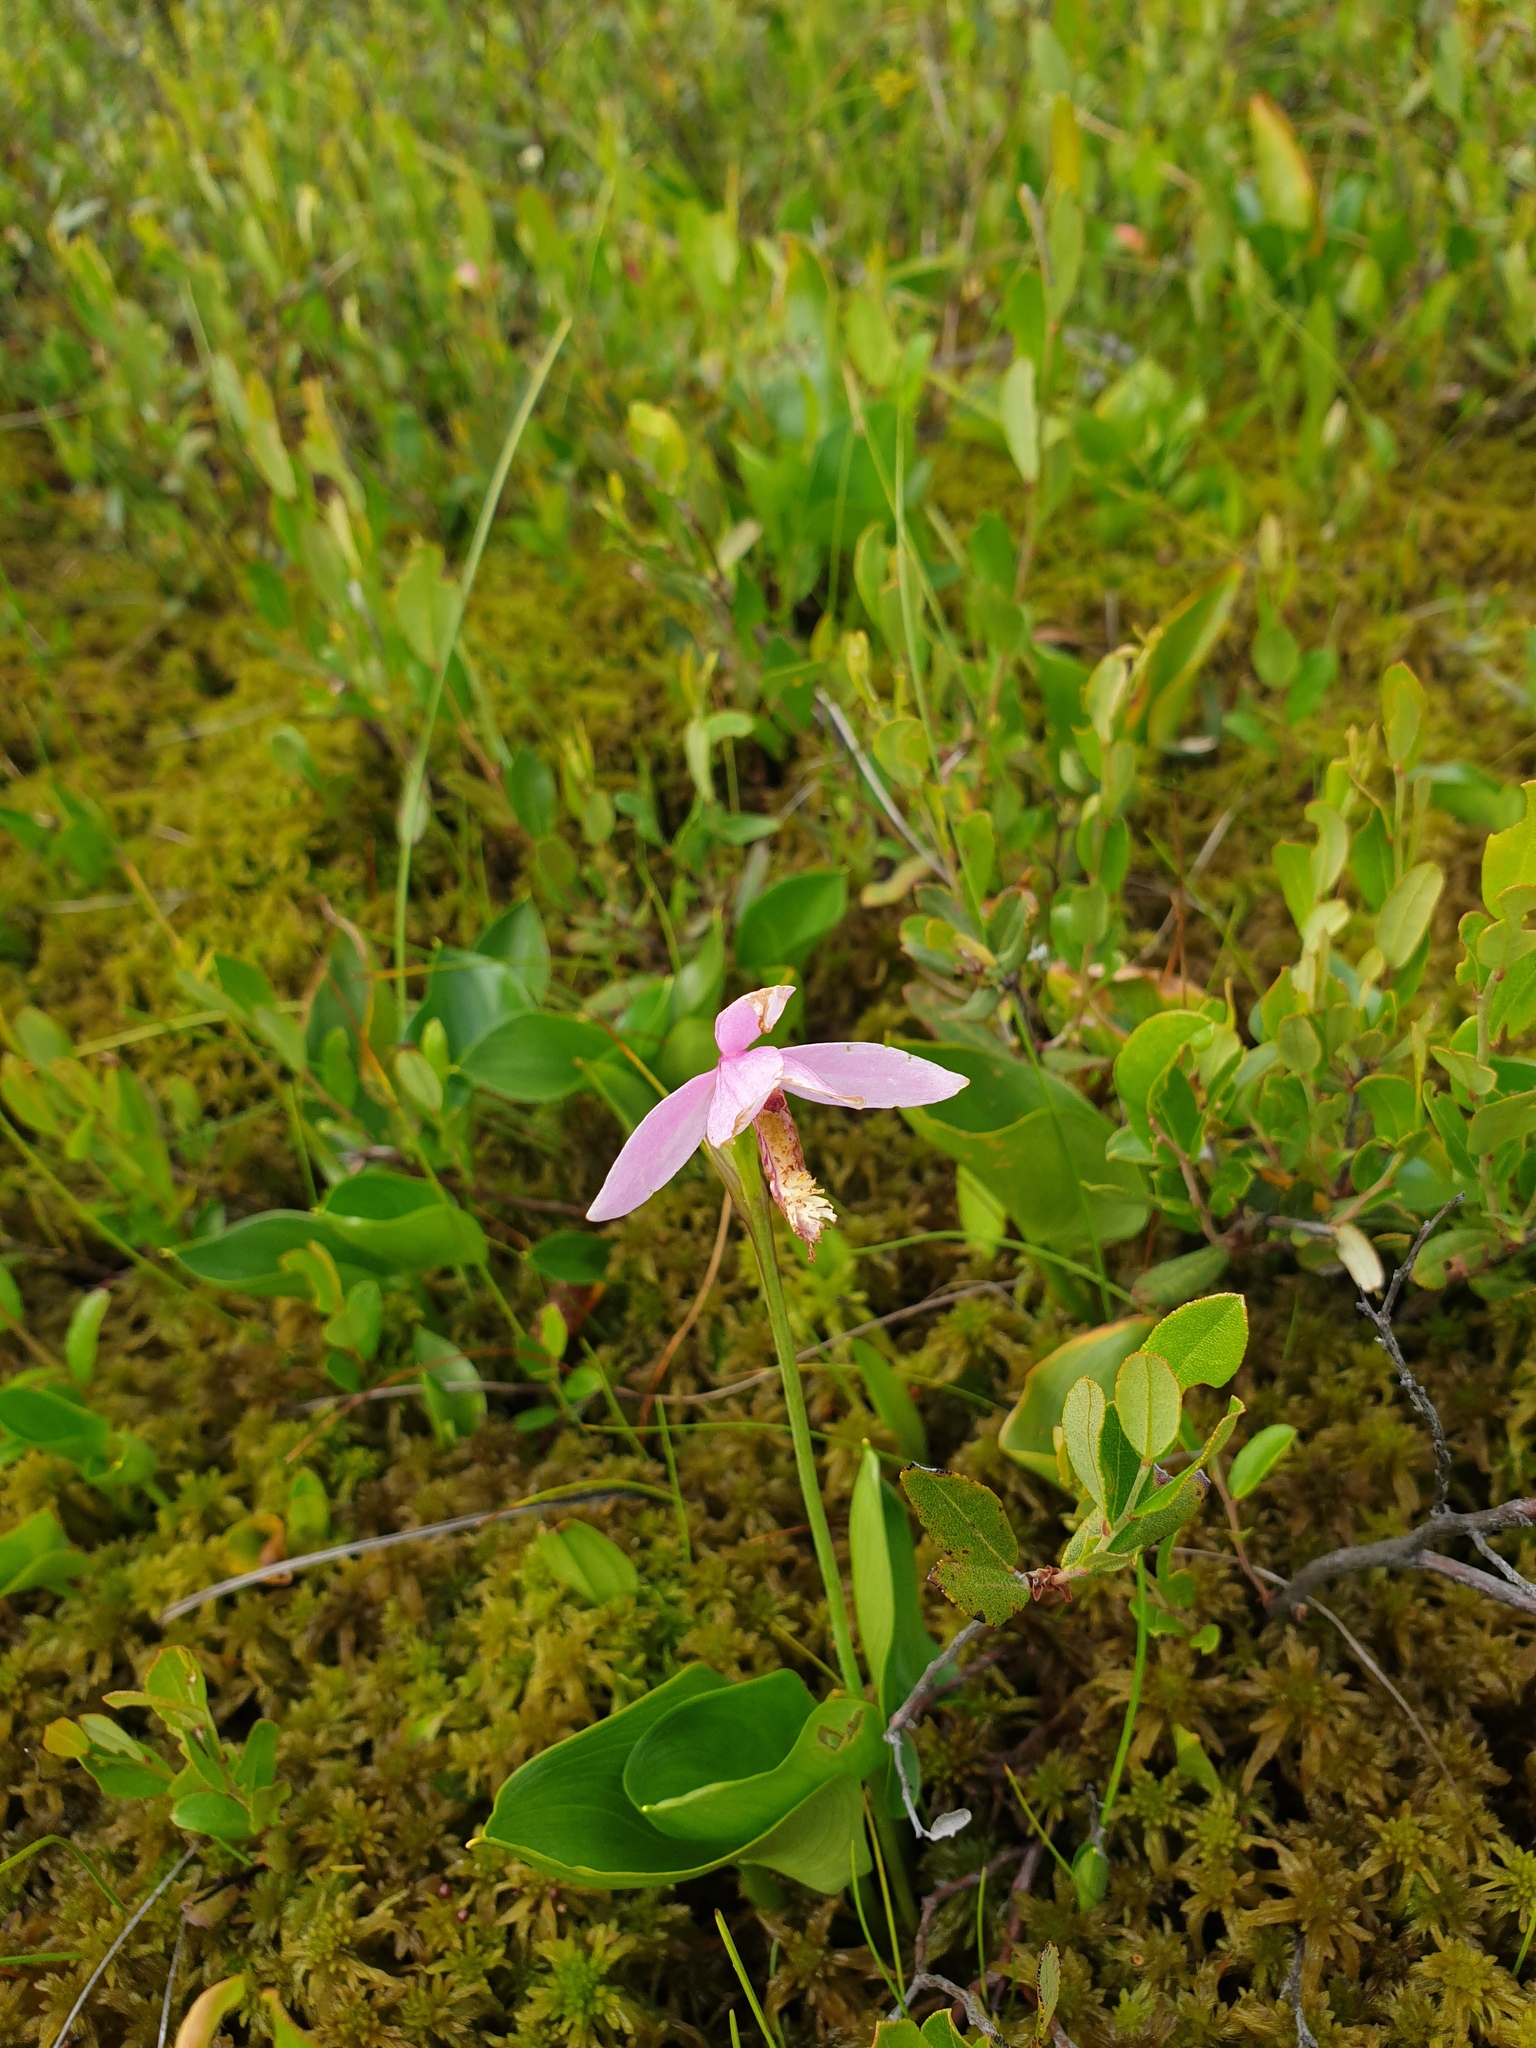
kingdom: Plantae
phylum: Tracheophyta
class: Liliopsida
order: Asparagales
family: Orchidaceae
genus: Pogonia
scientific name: Pogonia ophioglossoides
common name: Rose pogonia
